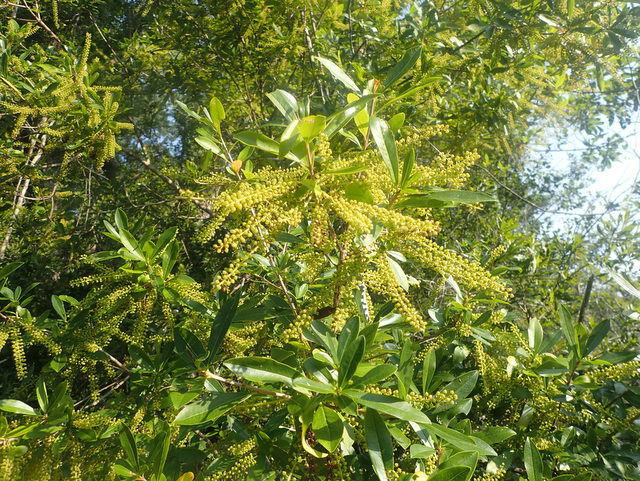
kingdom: Plantae
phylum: Tracheophyta
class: Magnoliopsida
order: Ericales
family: Cyrillaceae
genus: Cyrilla
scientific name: Cyrilla racemiflora
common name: Black titi
